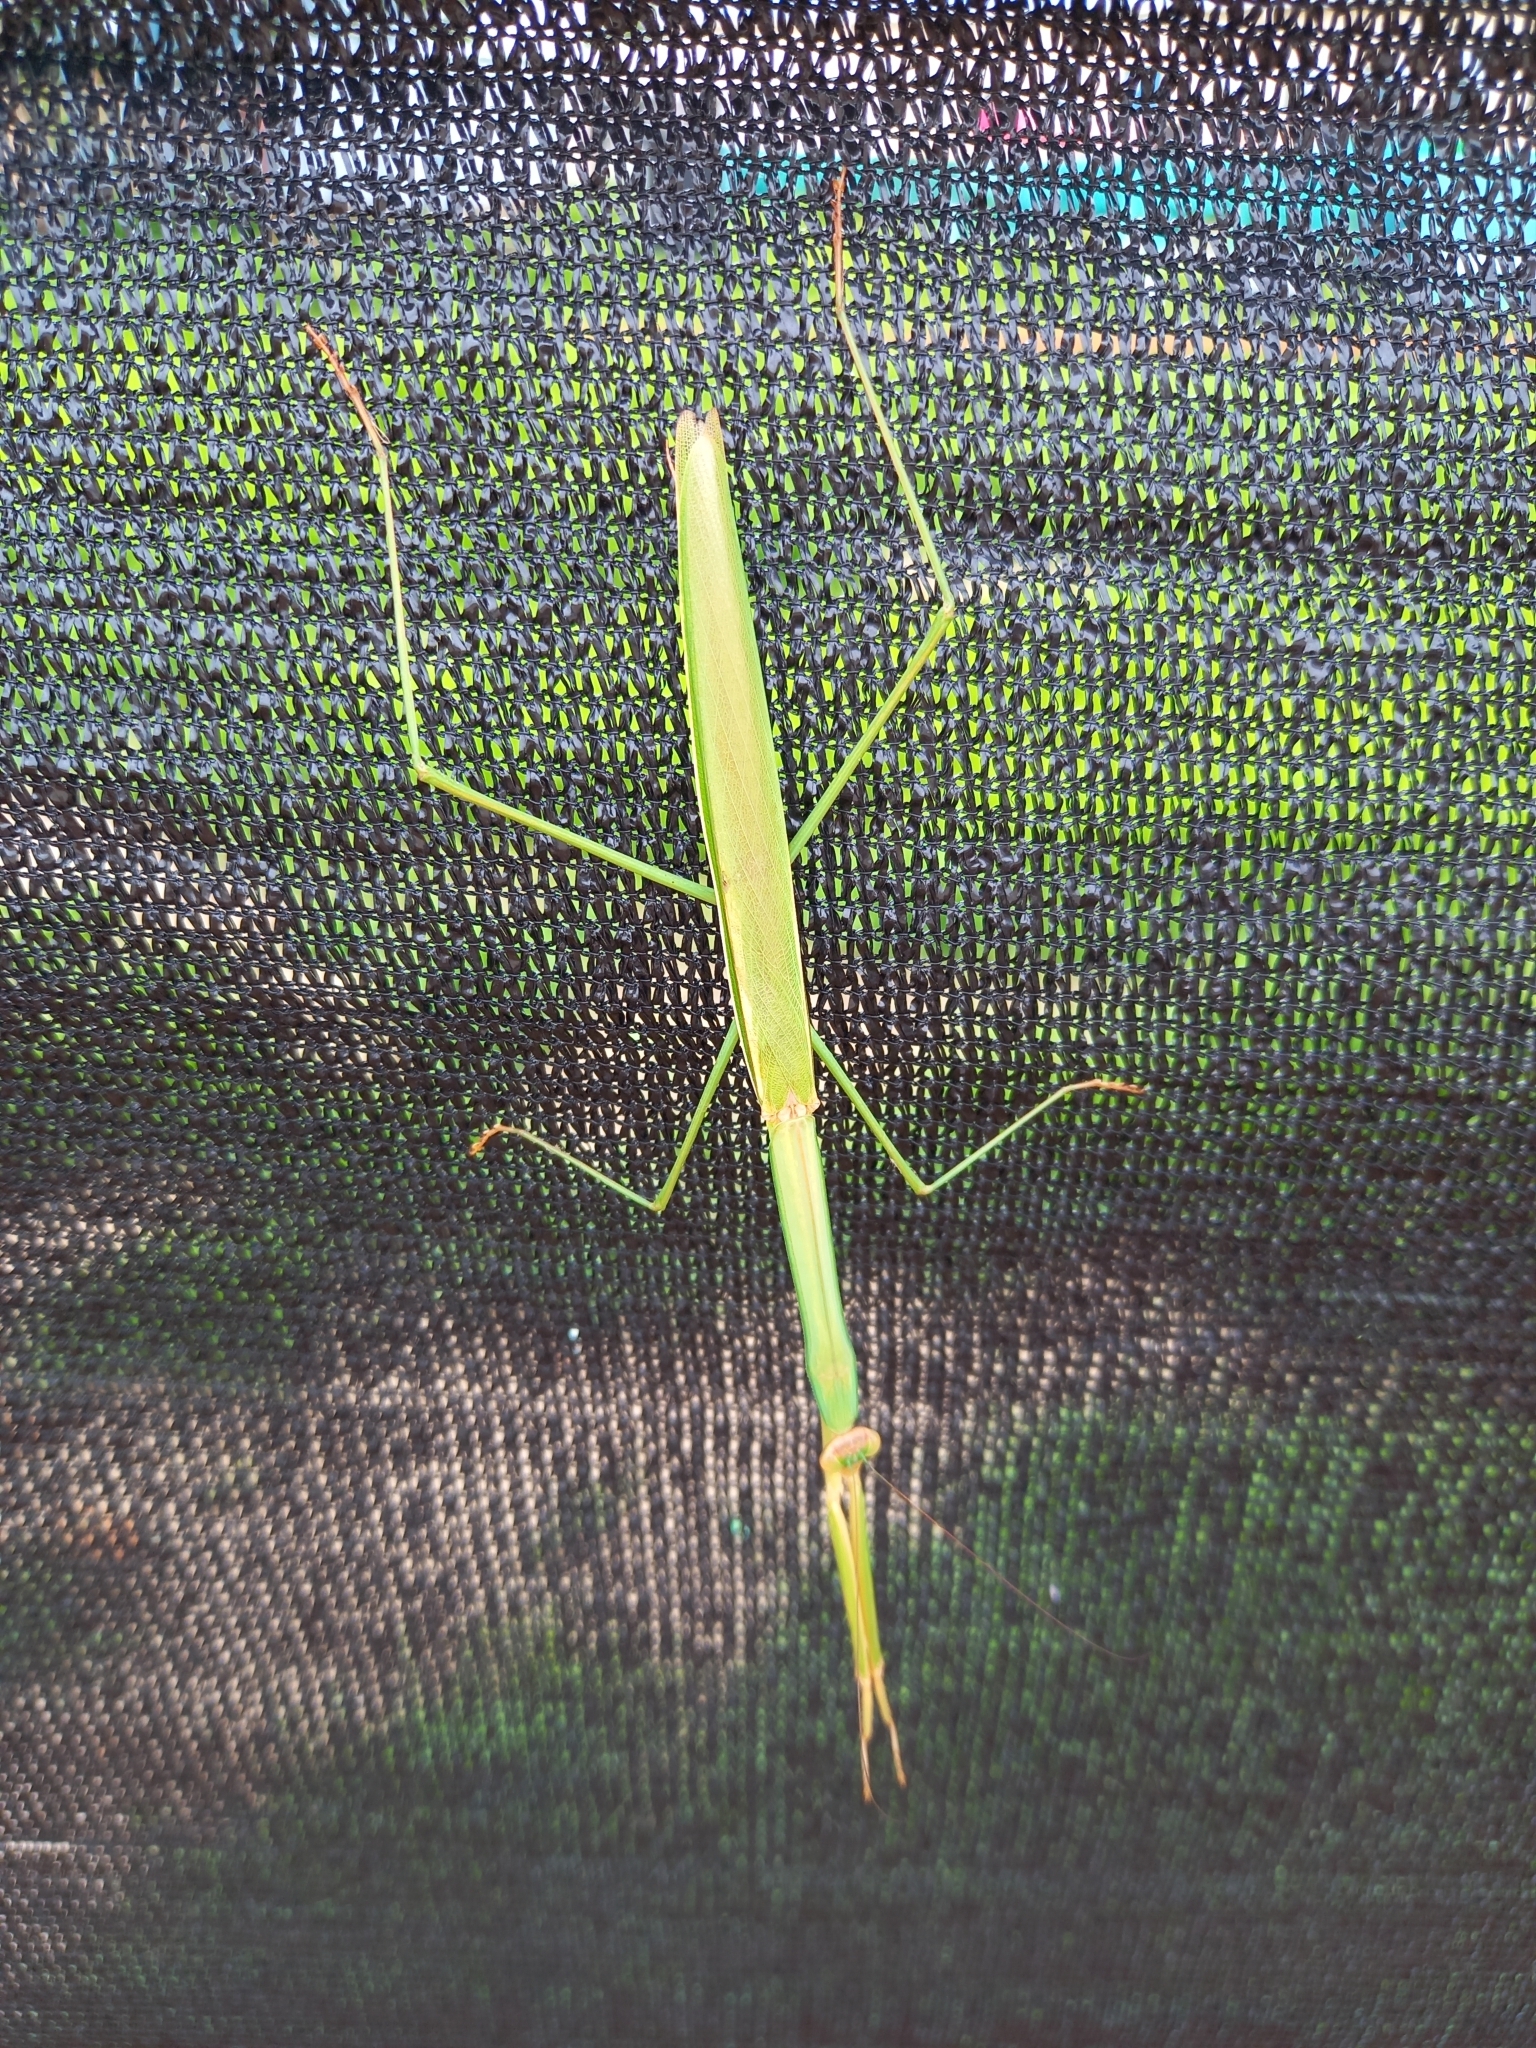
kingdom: Animalia
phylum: Arthropoda
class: Insecta
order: Mantodea
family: Mantidae
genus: Tenodera
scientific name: Tenodera superstitiosa
